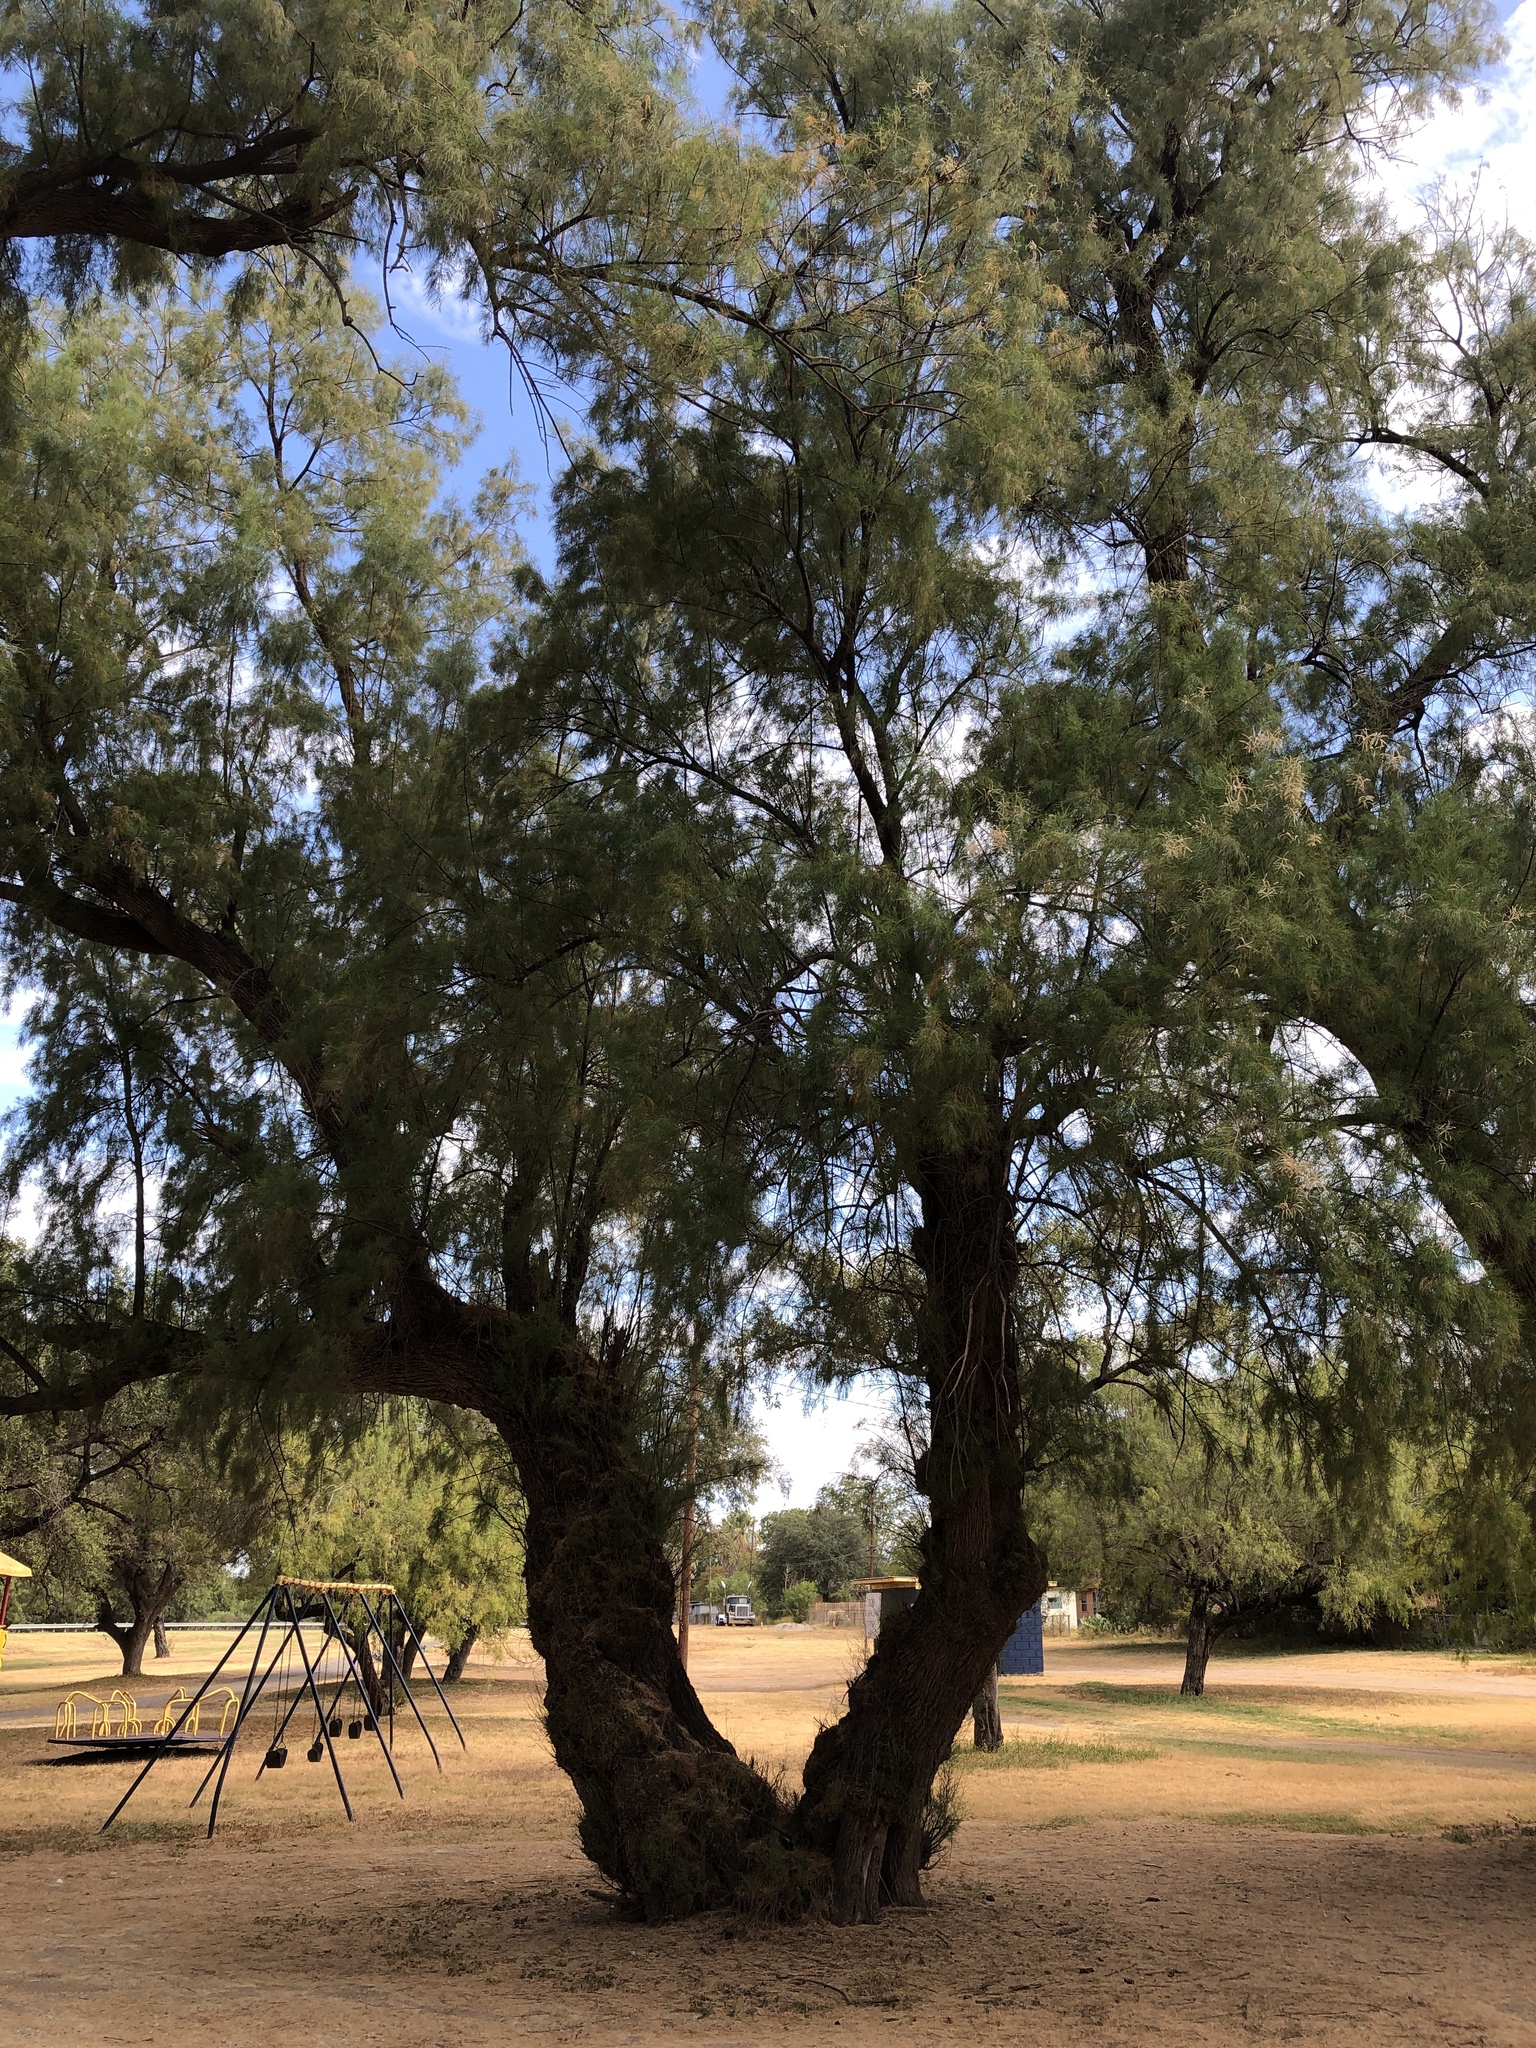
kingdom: Plantae
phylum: Tracheophyta
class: Magnoliopsida
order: Caryophyllales
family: Tamaricaceae
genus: Tamarix
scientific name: Tamarix aphylla
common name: Athel tamarisk
